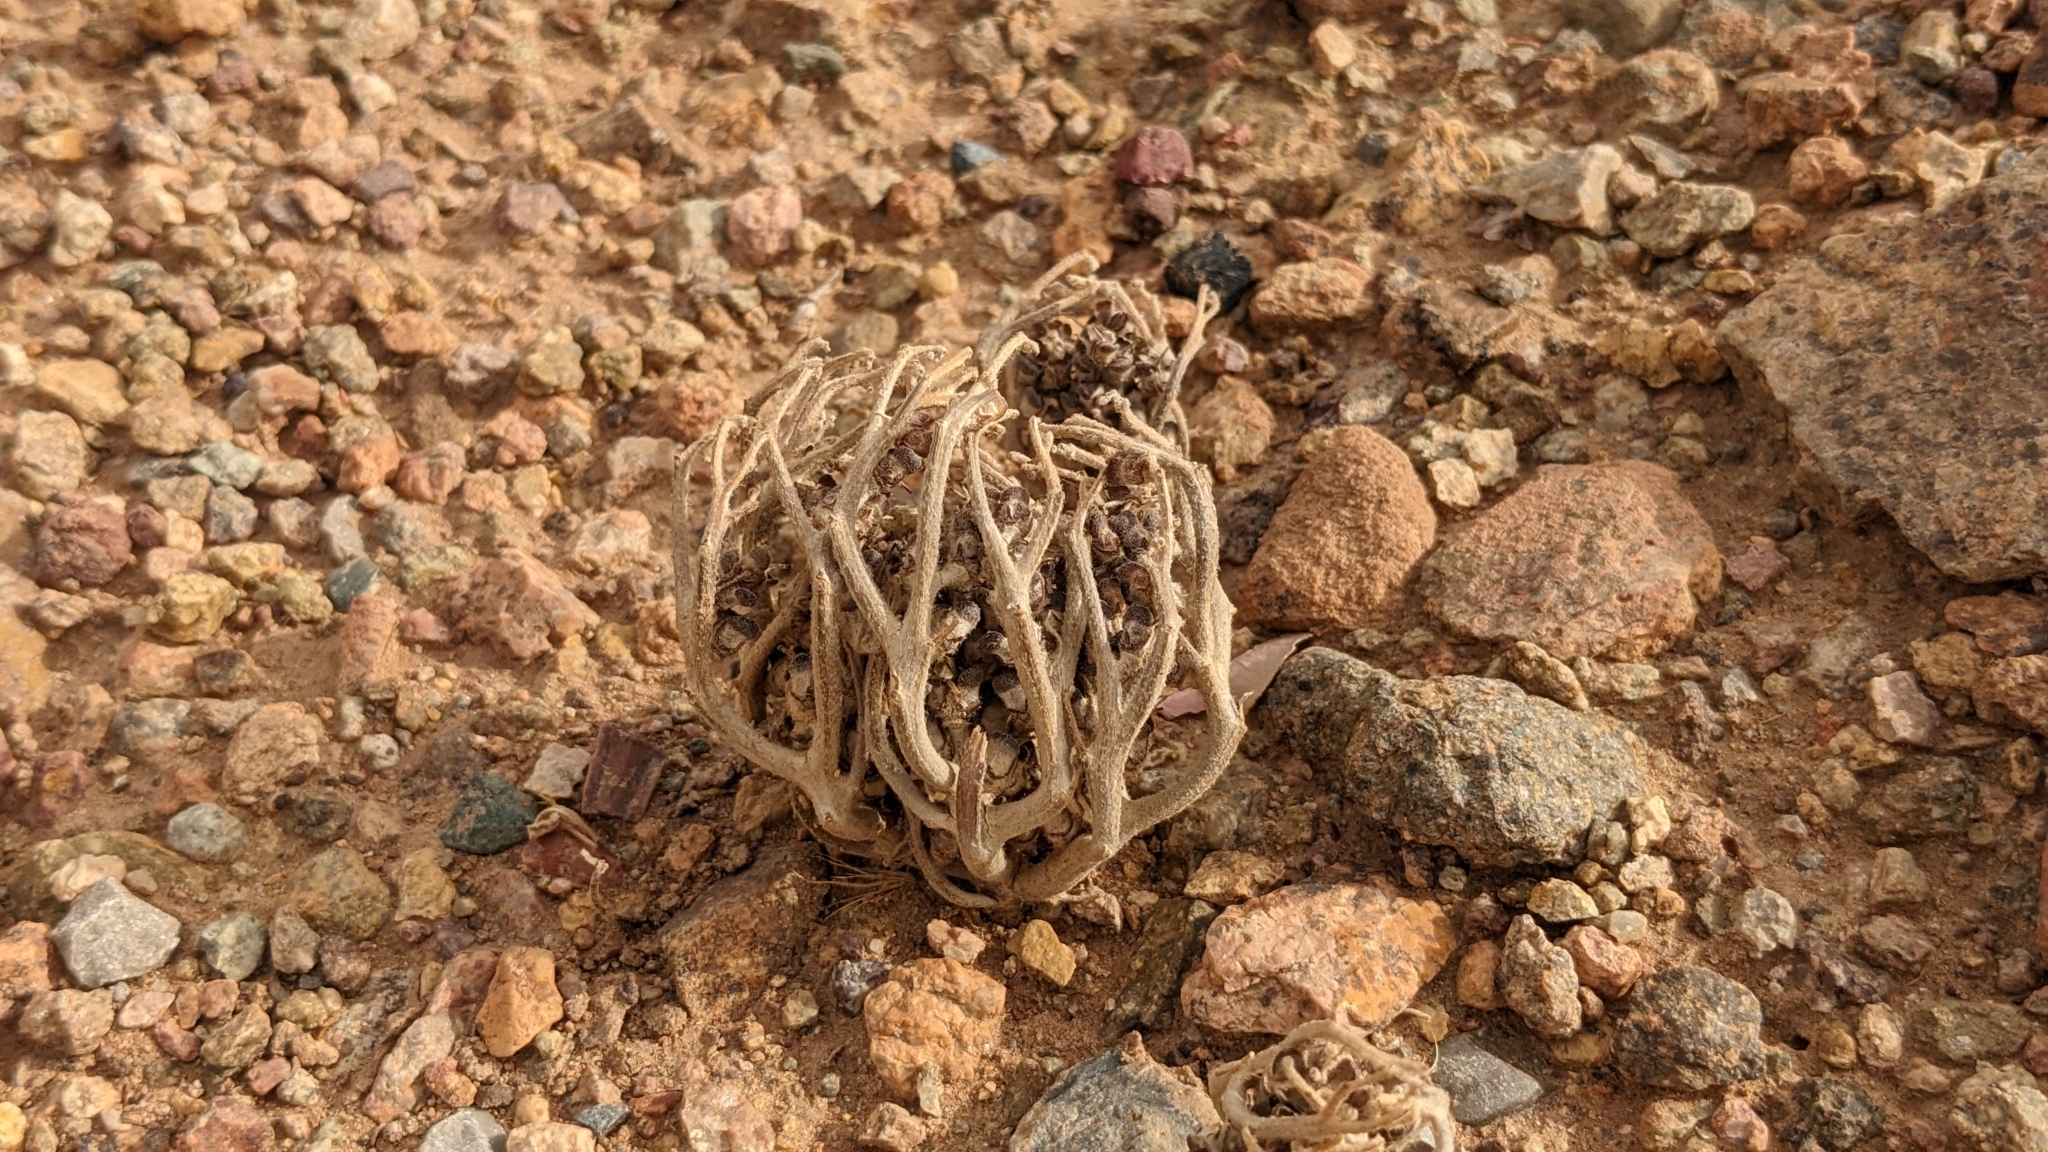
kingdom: Plantae
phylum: Tracheophyta
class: Magnoliopsida
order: Brassicales
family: Brassicaceae
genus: Anastatica
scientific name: Anastatica hierochuntica
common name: Rose-of-jericho
